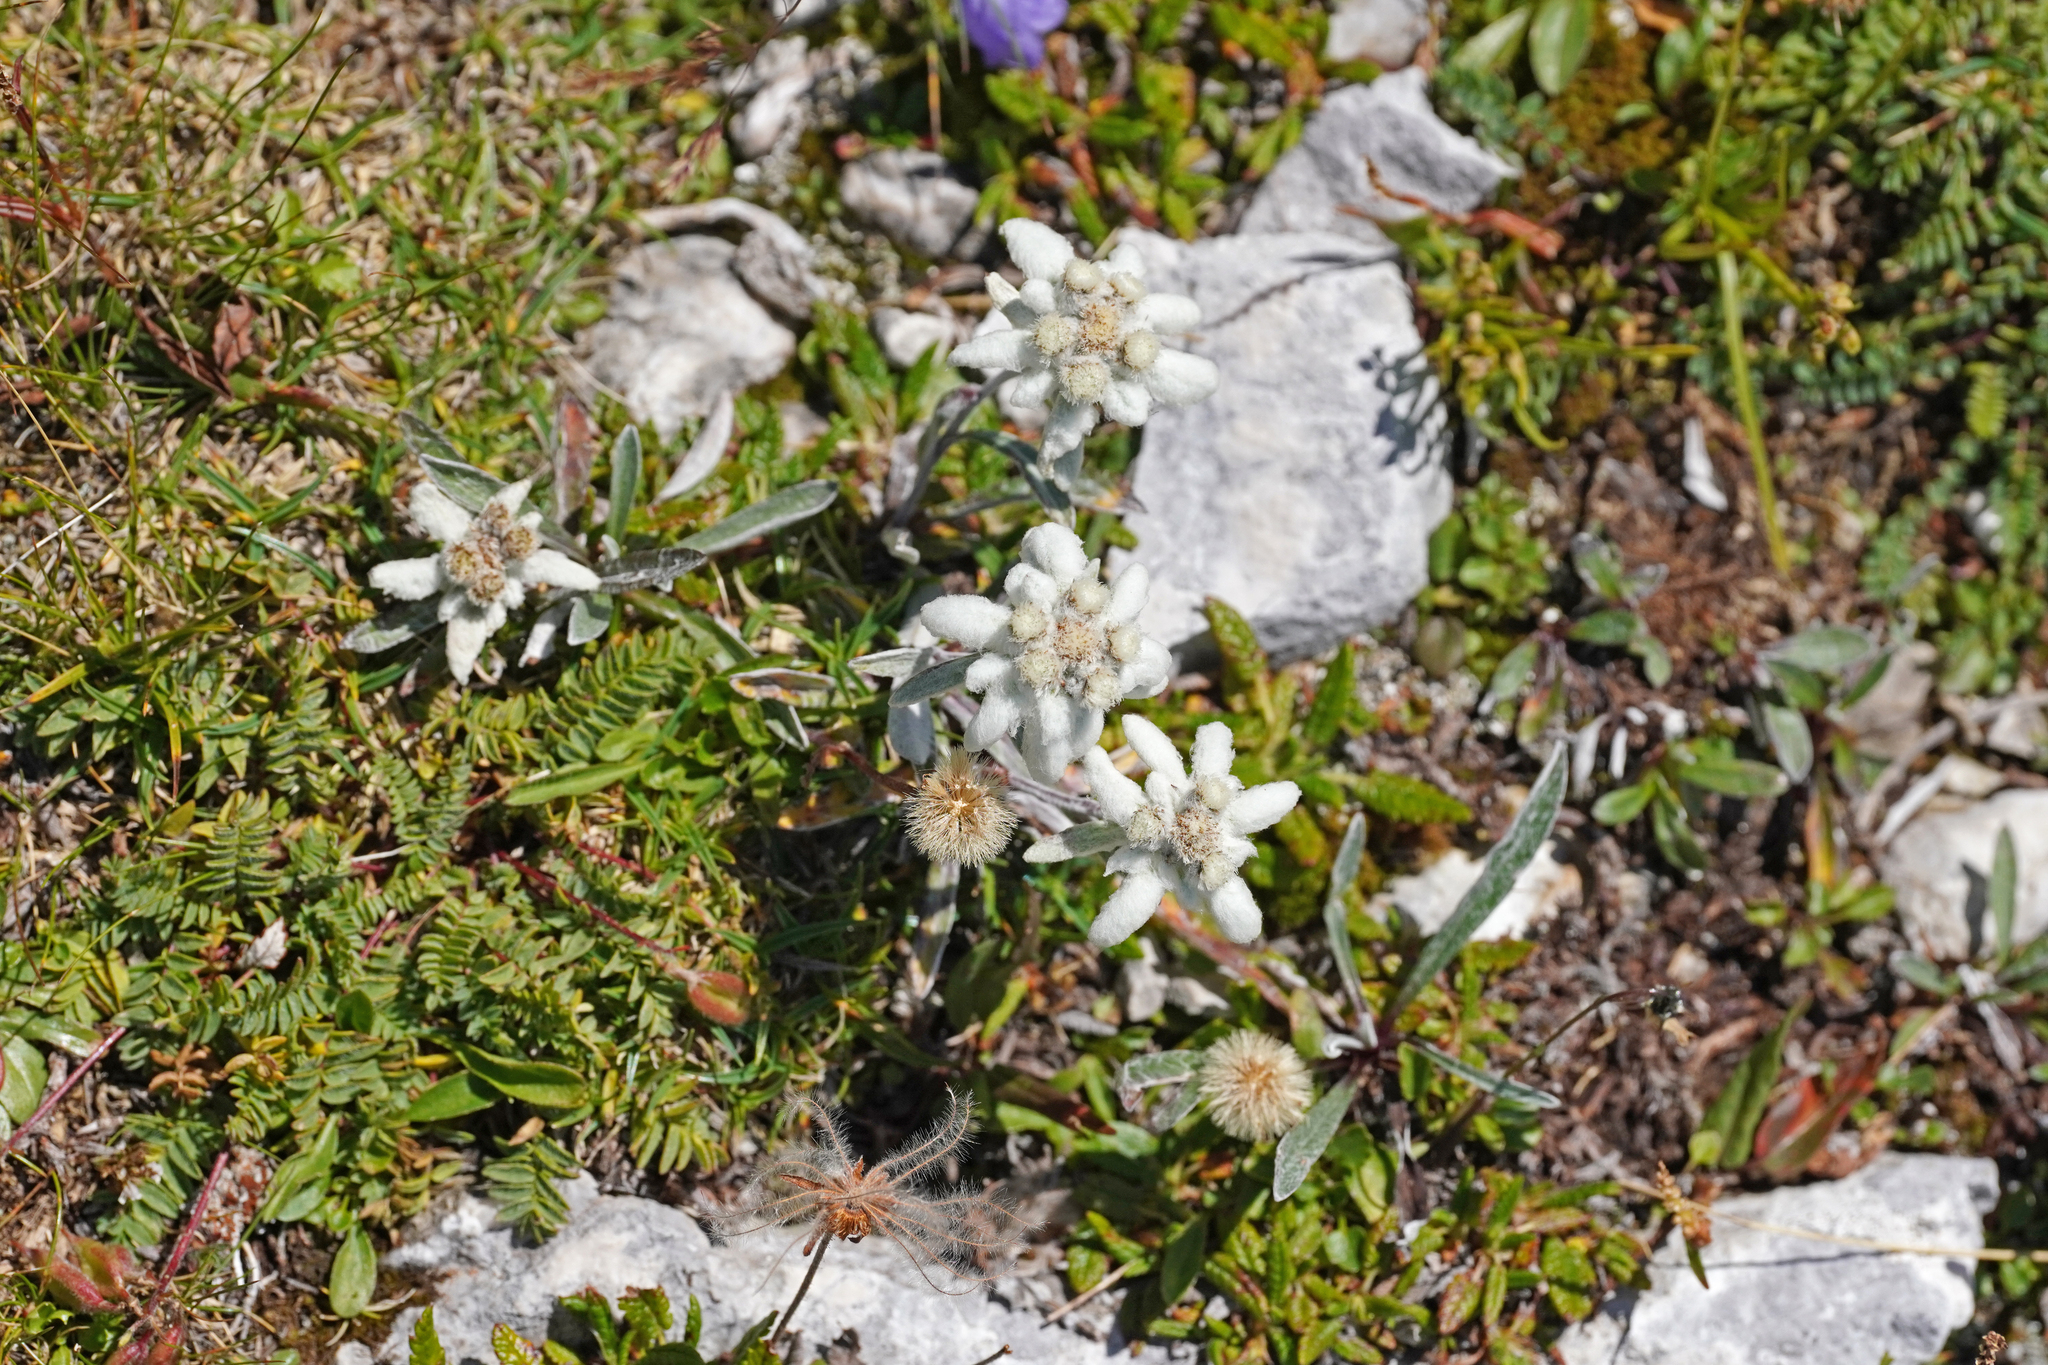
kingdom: Plantae
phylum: Tracheophyta
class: Magnoliopsida
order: Asterales
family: Asteraceae
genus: Leontopodium
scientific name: Leontopodium nivale
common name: Edelweiss
